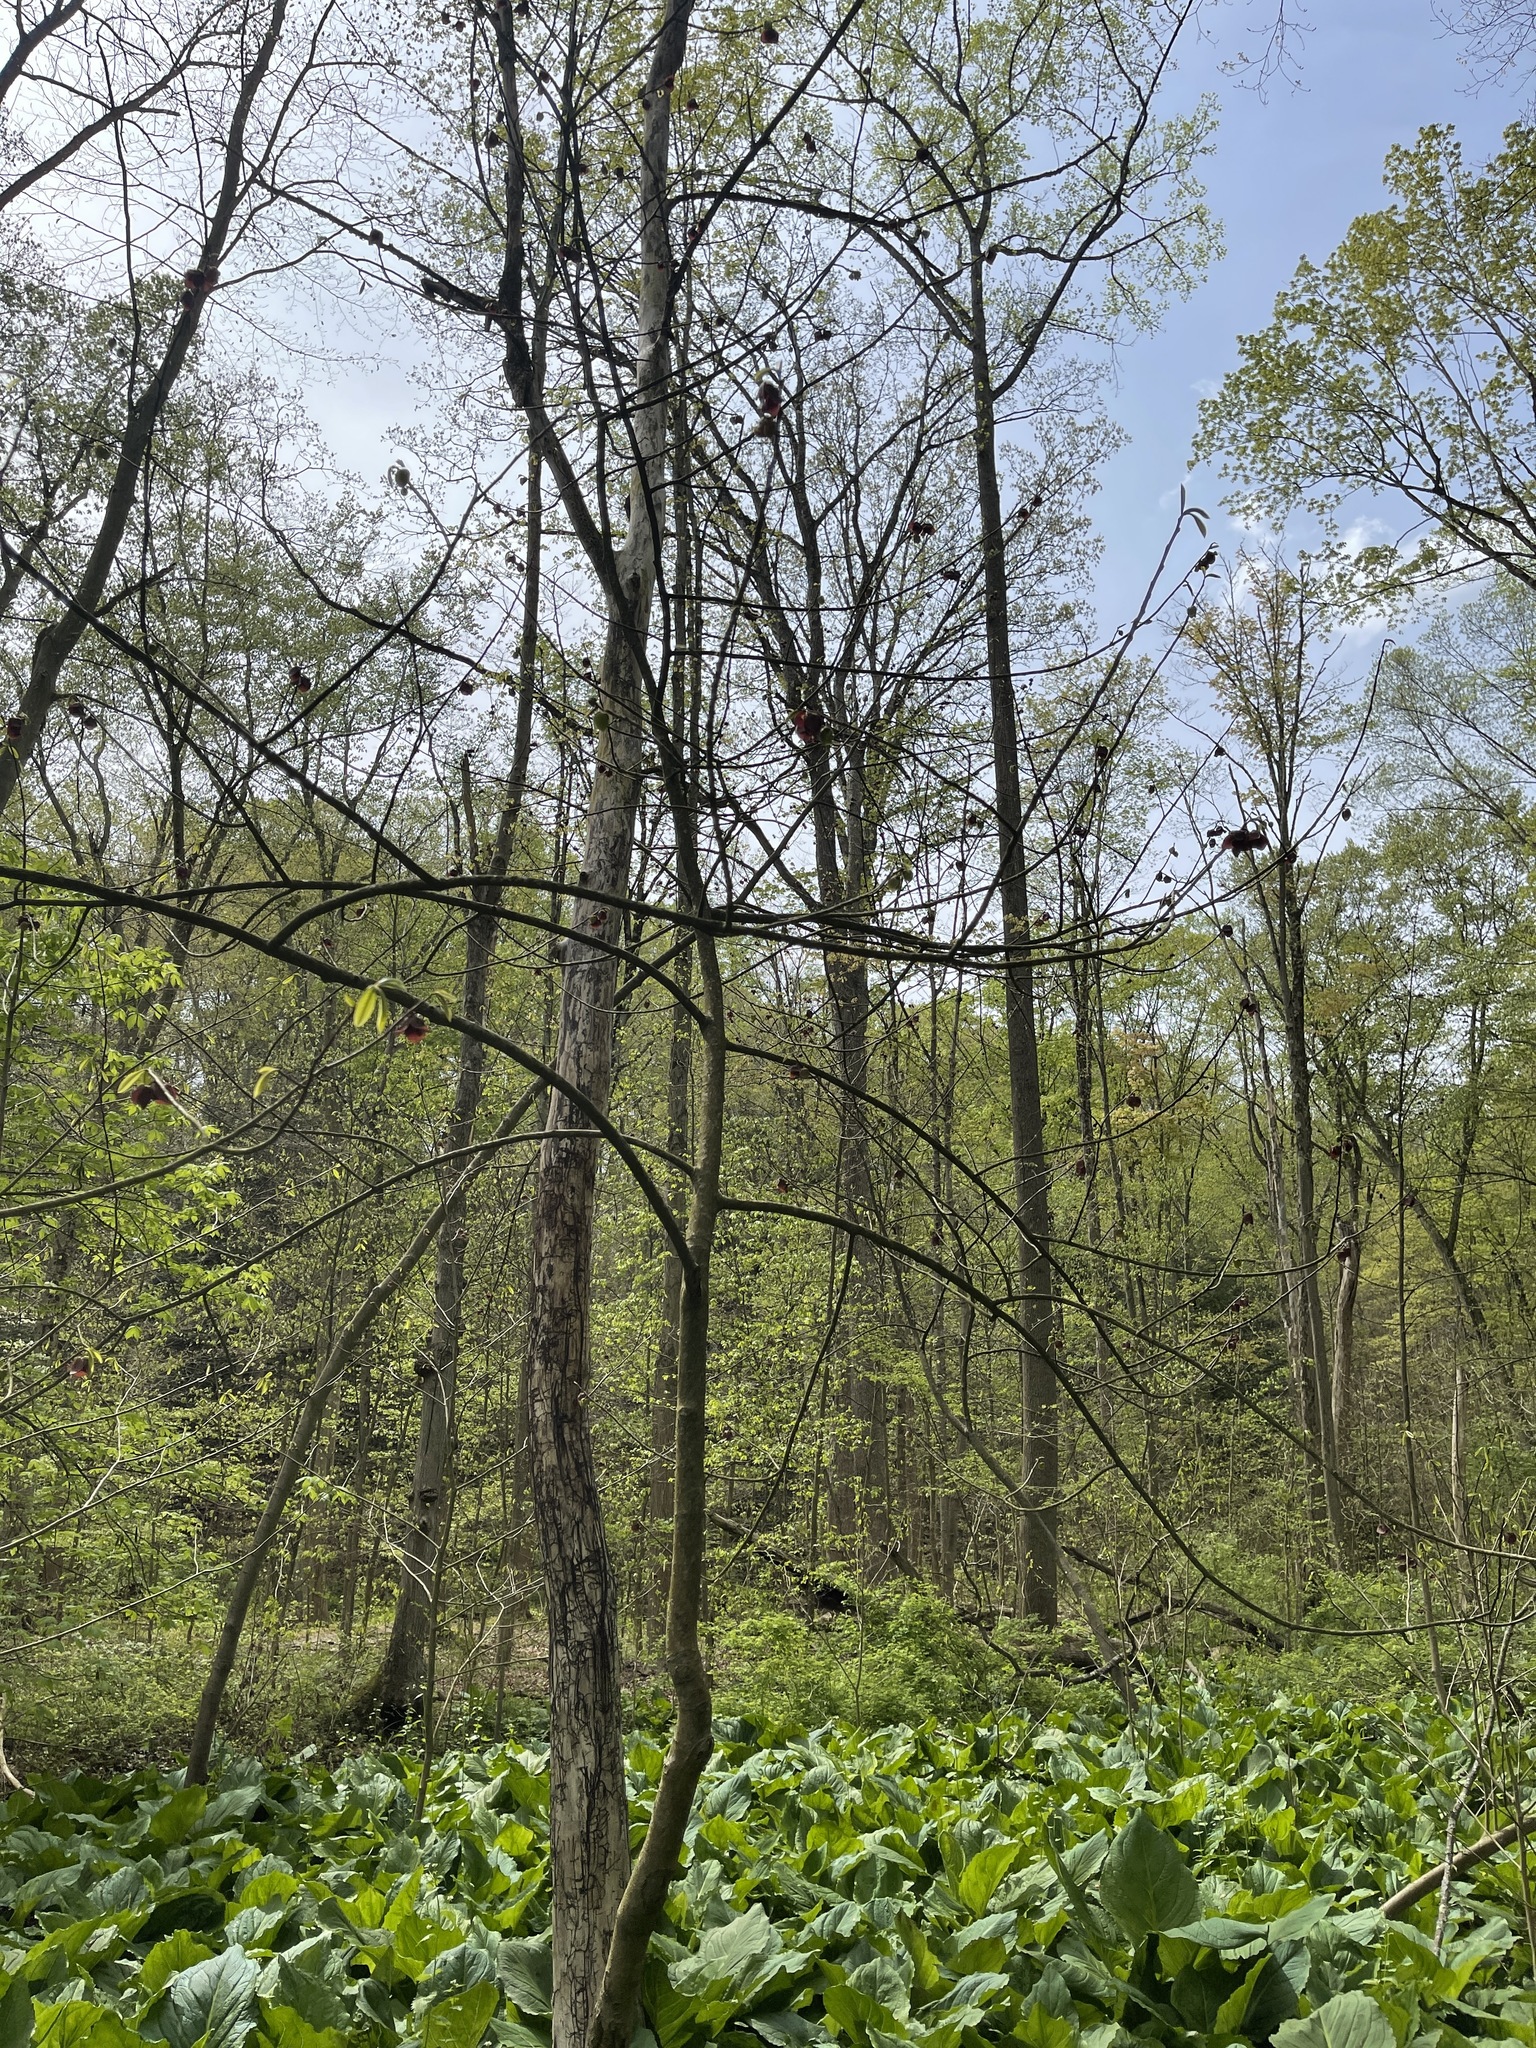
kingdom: Plantae
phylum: Tracheophyta
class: Magnoliopsida
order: Magnoliales
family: Annonaceae
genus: Asimina
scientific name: Asimina triloba
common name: Dog-banana
